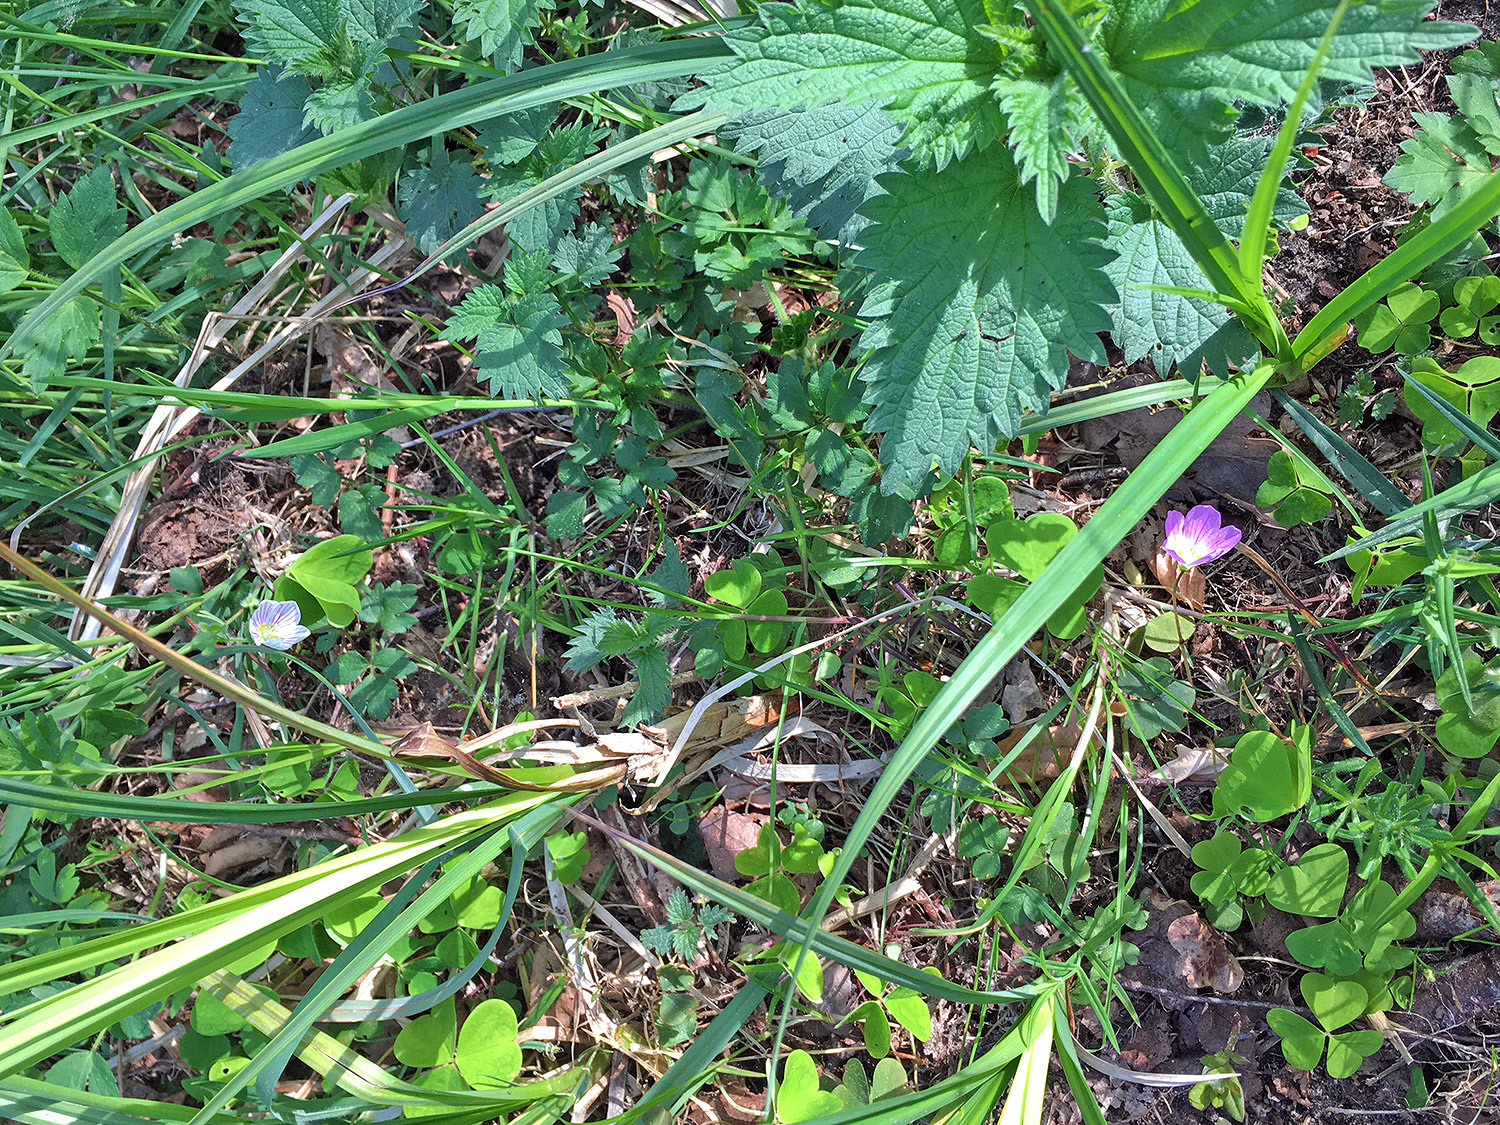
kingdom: Plantae
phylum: Tracheophyta
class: Magnoliopsida
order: Oxalidales
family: Oxalidaceae
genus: Oxalis
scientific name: Oxalis acetosella
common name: Wood-sorrel
